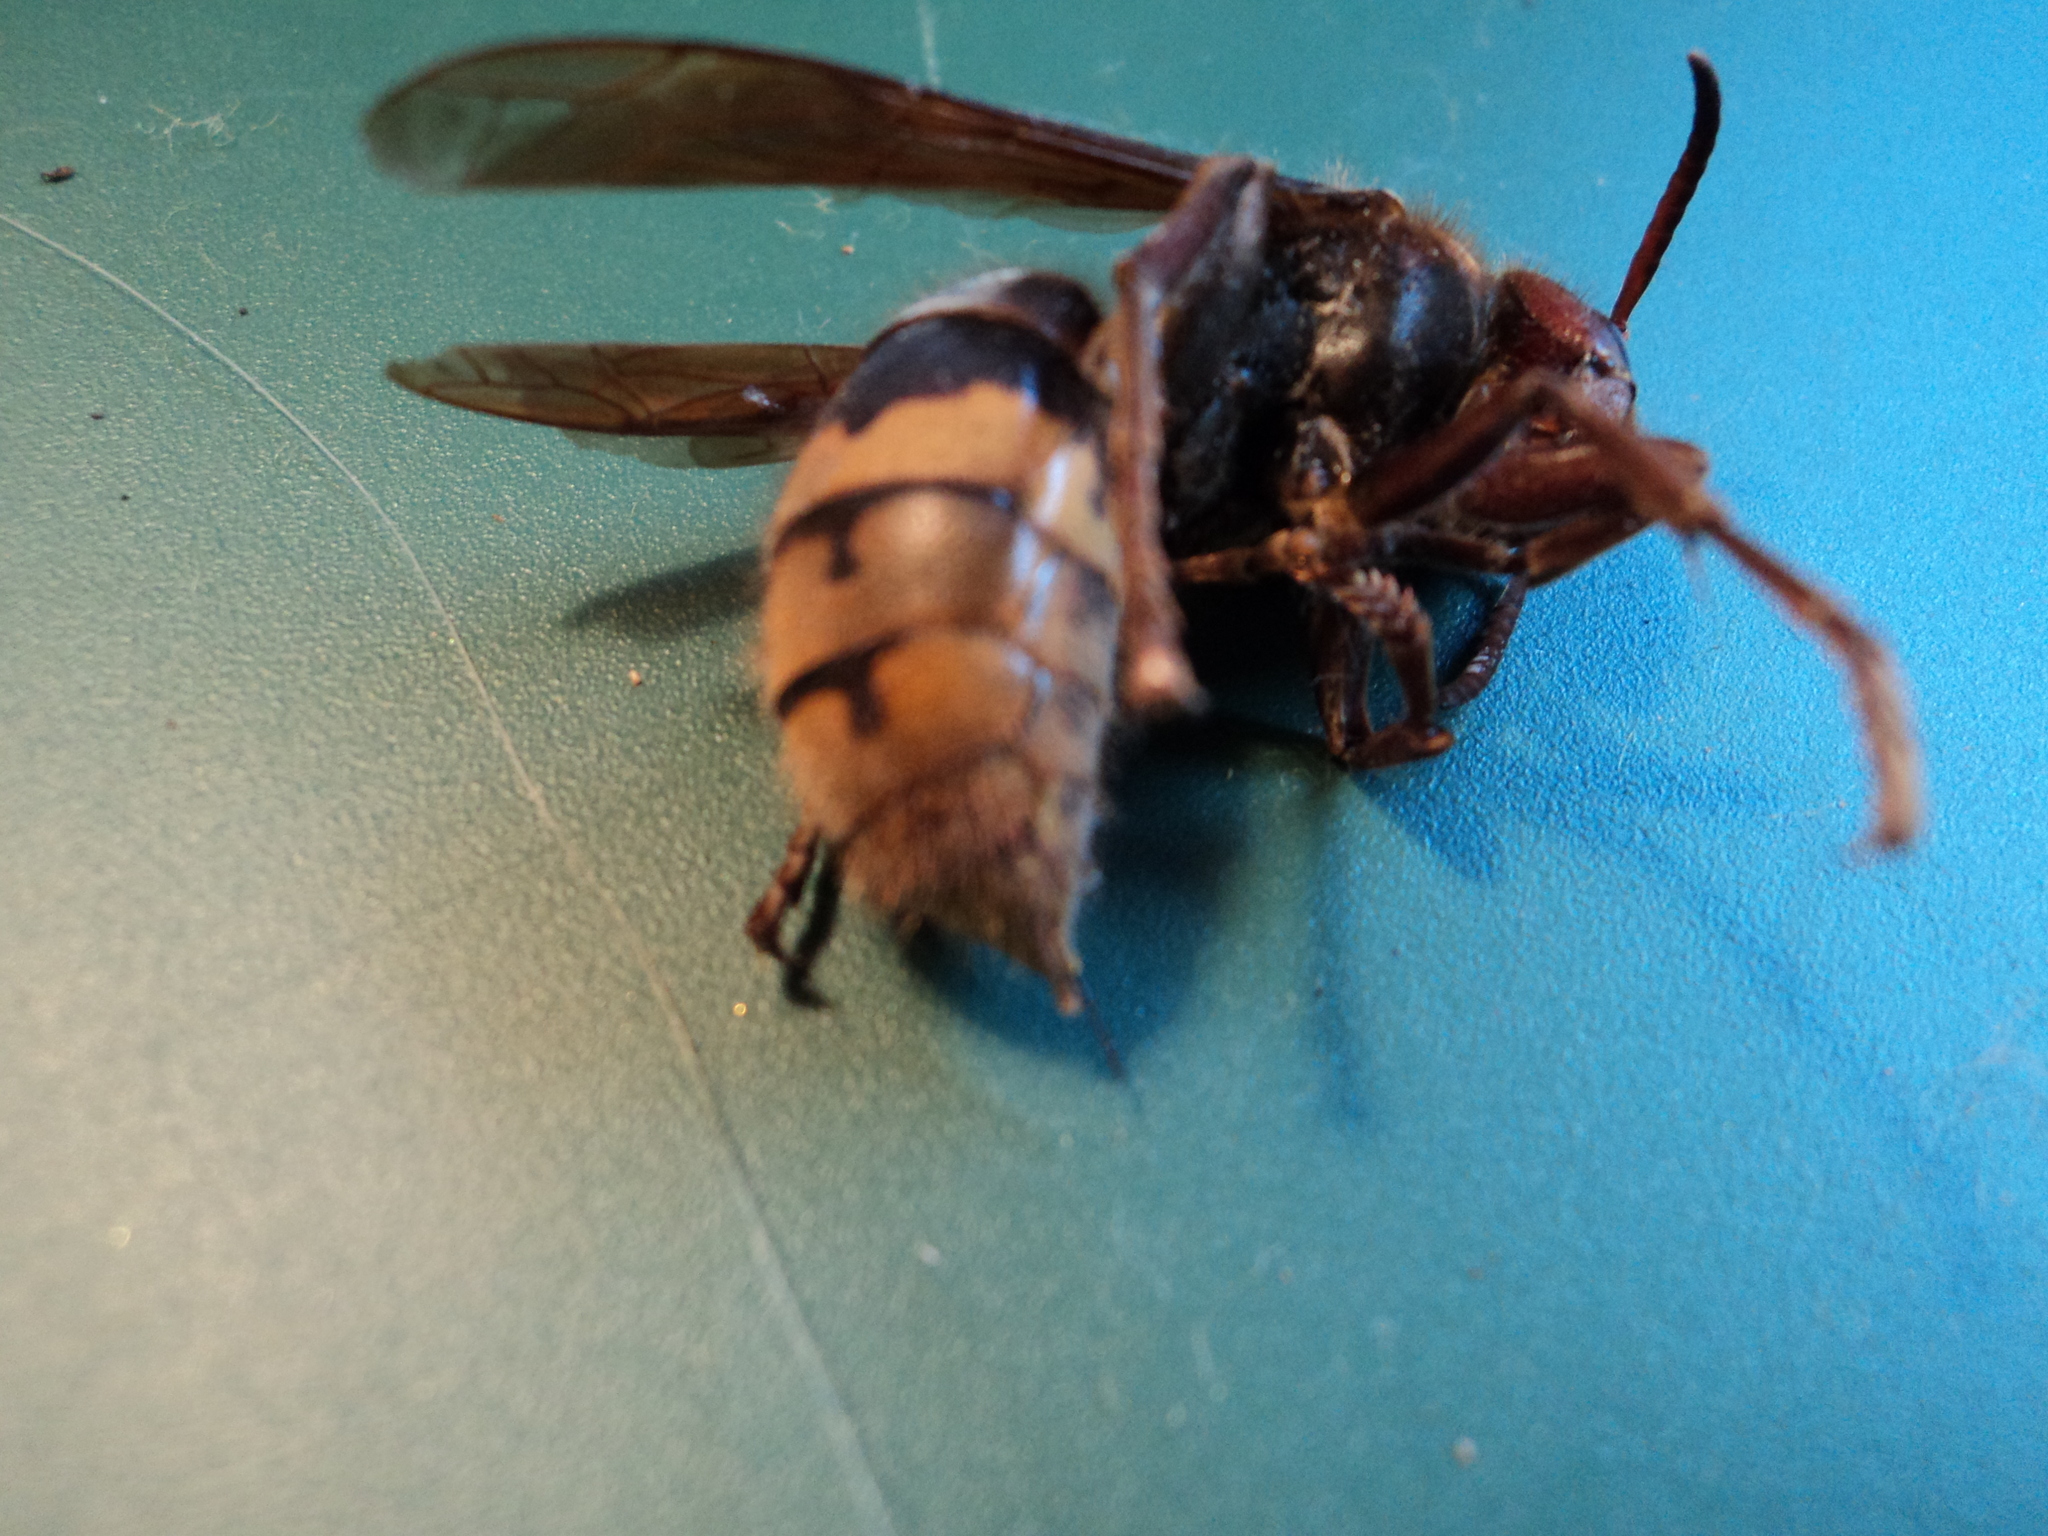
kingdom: Animalia
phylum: Arthropoda
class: Insecta
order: Hymenoptera
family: Vespidae
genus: Vespa
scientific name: Vespa crabro
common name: Hornet
